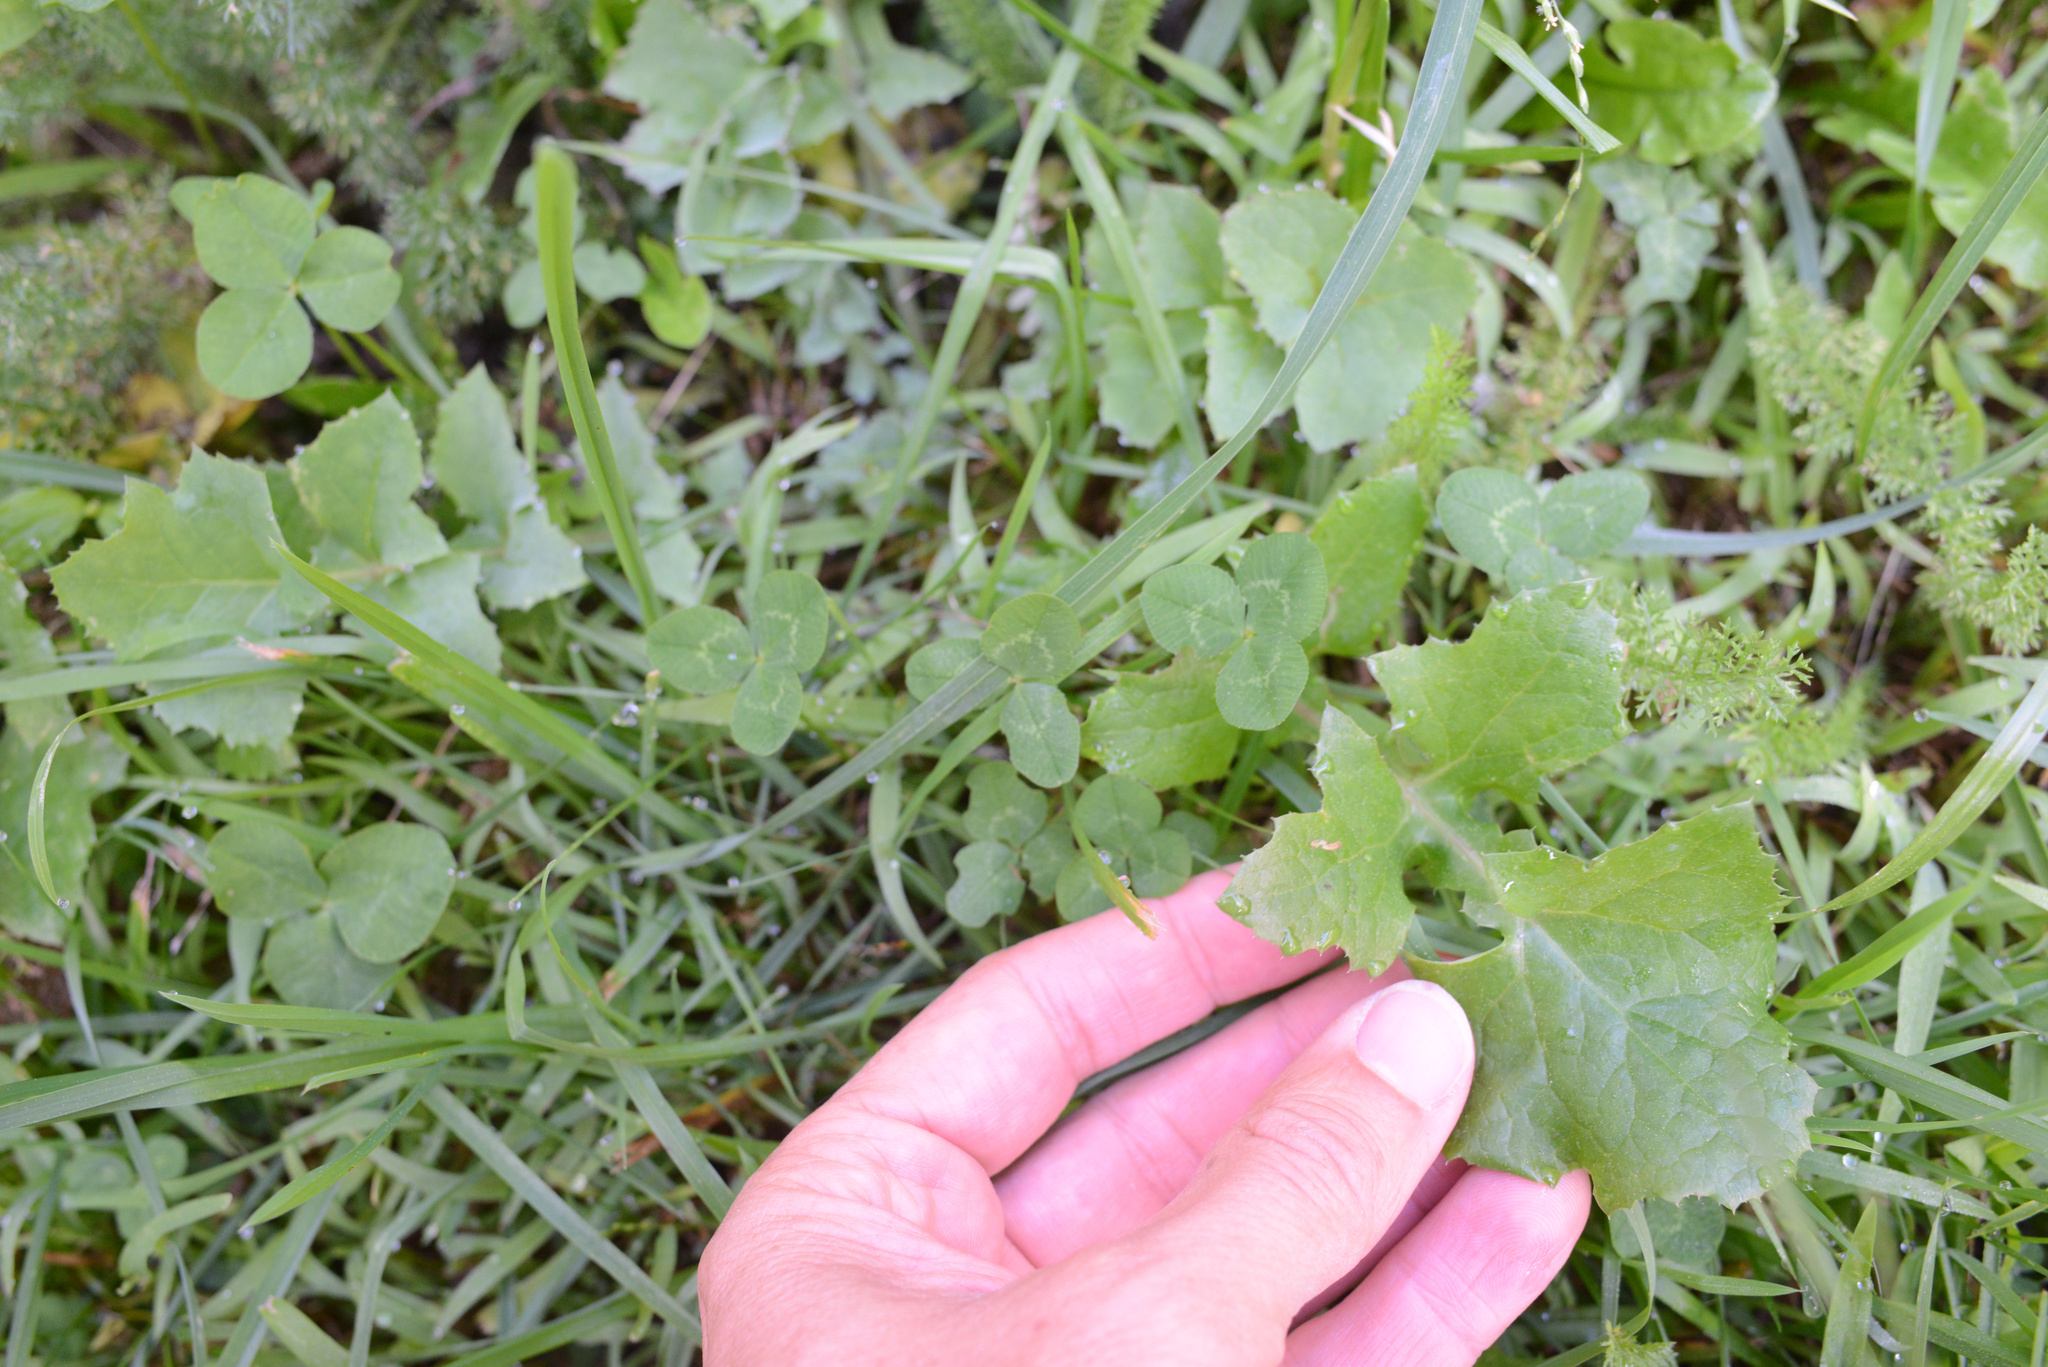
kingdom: Plantae
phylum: Tracheophyta
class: Magnoliopsida
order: Asterales
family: Asteraceae
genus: Sonchus
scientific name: Sonchus oleraceus
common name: Common sowthistle
